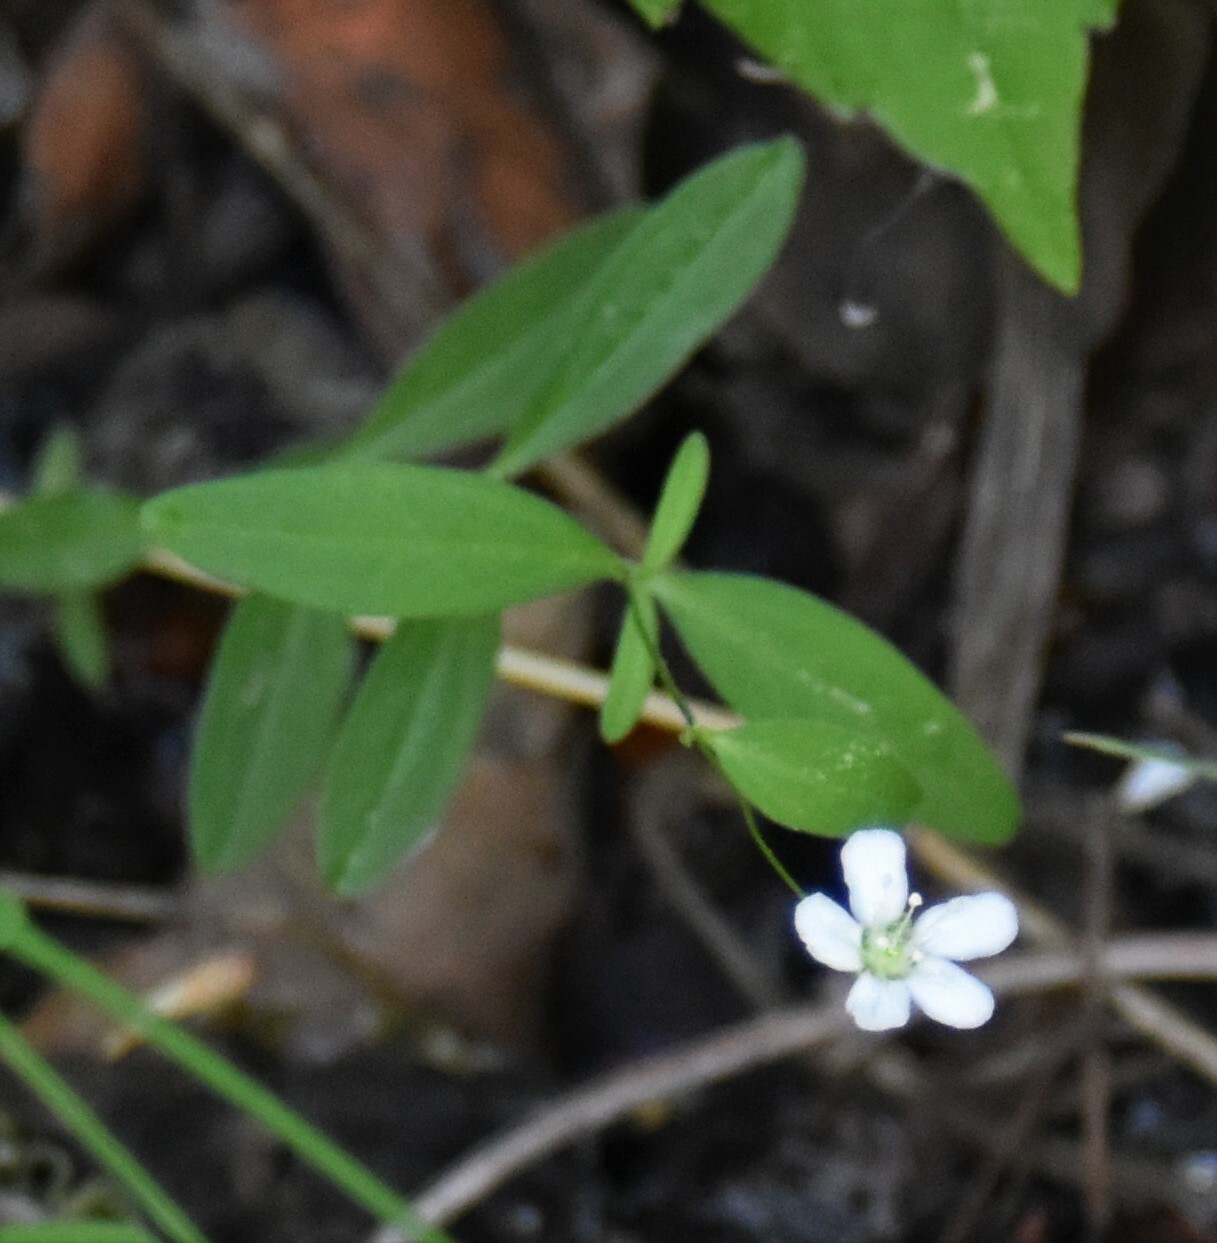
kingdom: Plantae
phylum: Tracheophyta
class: Magnoliopsida
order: Caryophyllales
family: Caryophyllaceae
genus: Moehringia
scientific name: Moehringia lateriflora
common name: Blunt-leaved sandwort
